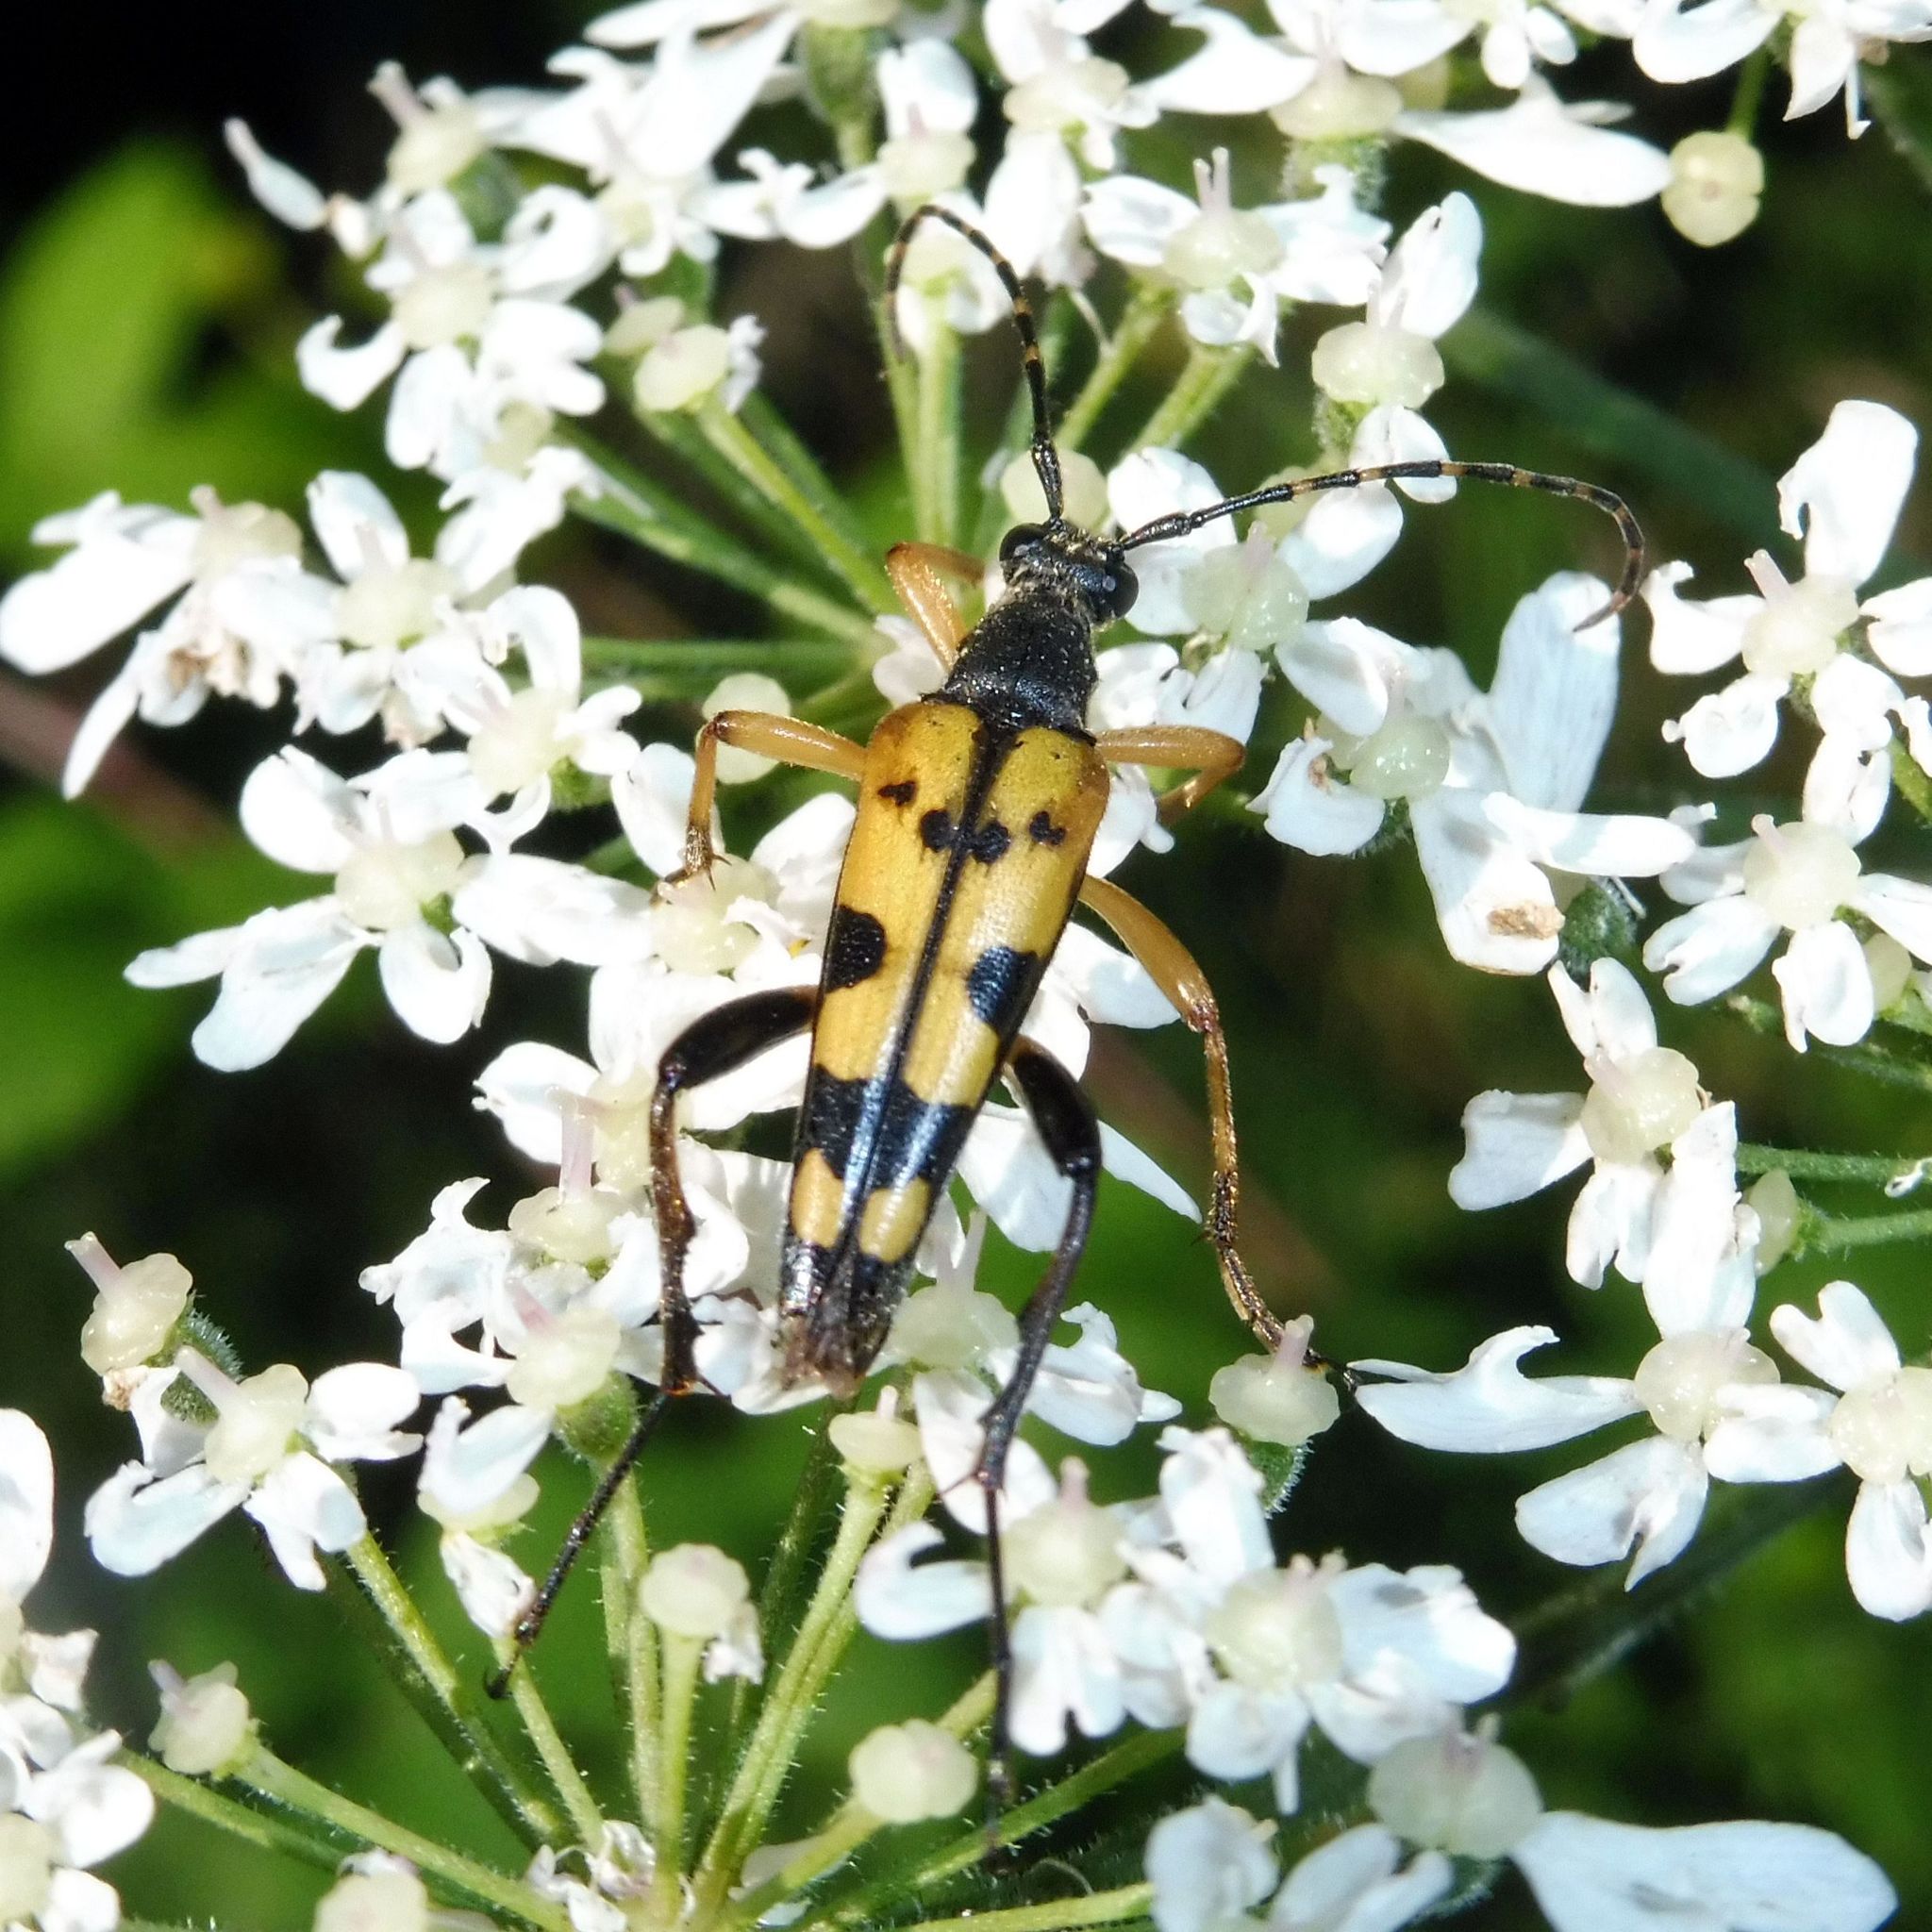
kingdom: Animalia
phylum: Arthropoda
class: Insecta
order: Coleoptera
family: Cerambycidae
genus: Rutpela
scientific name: Rutpela maculata
